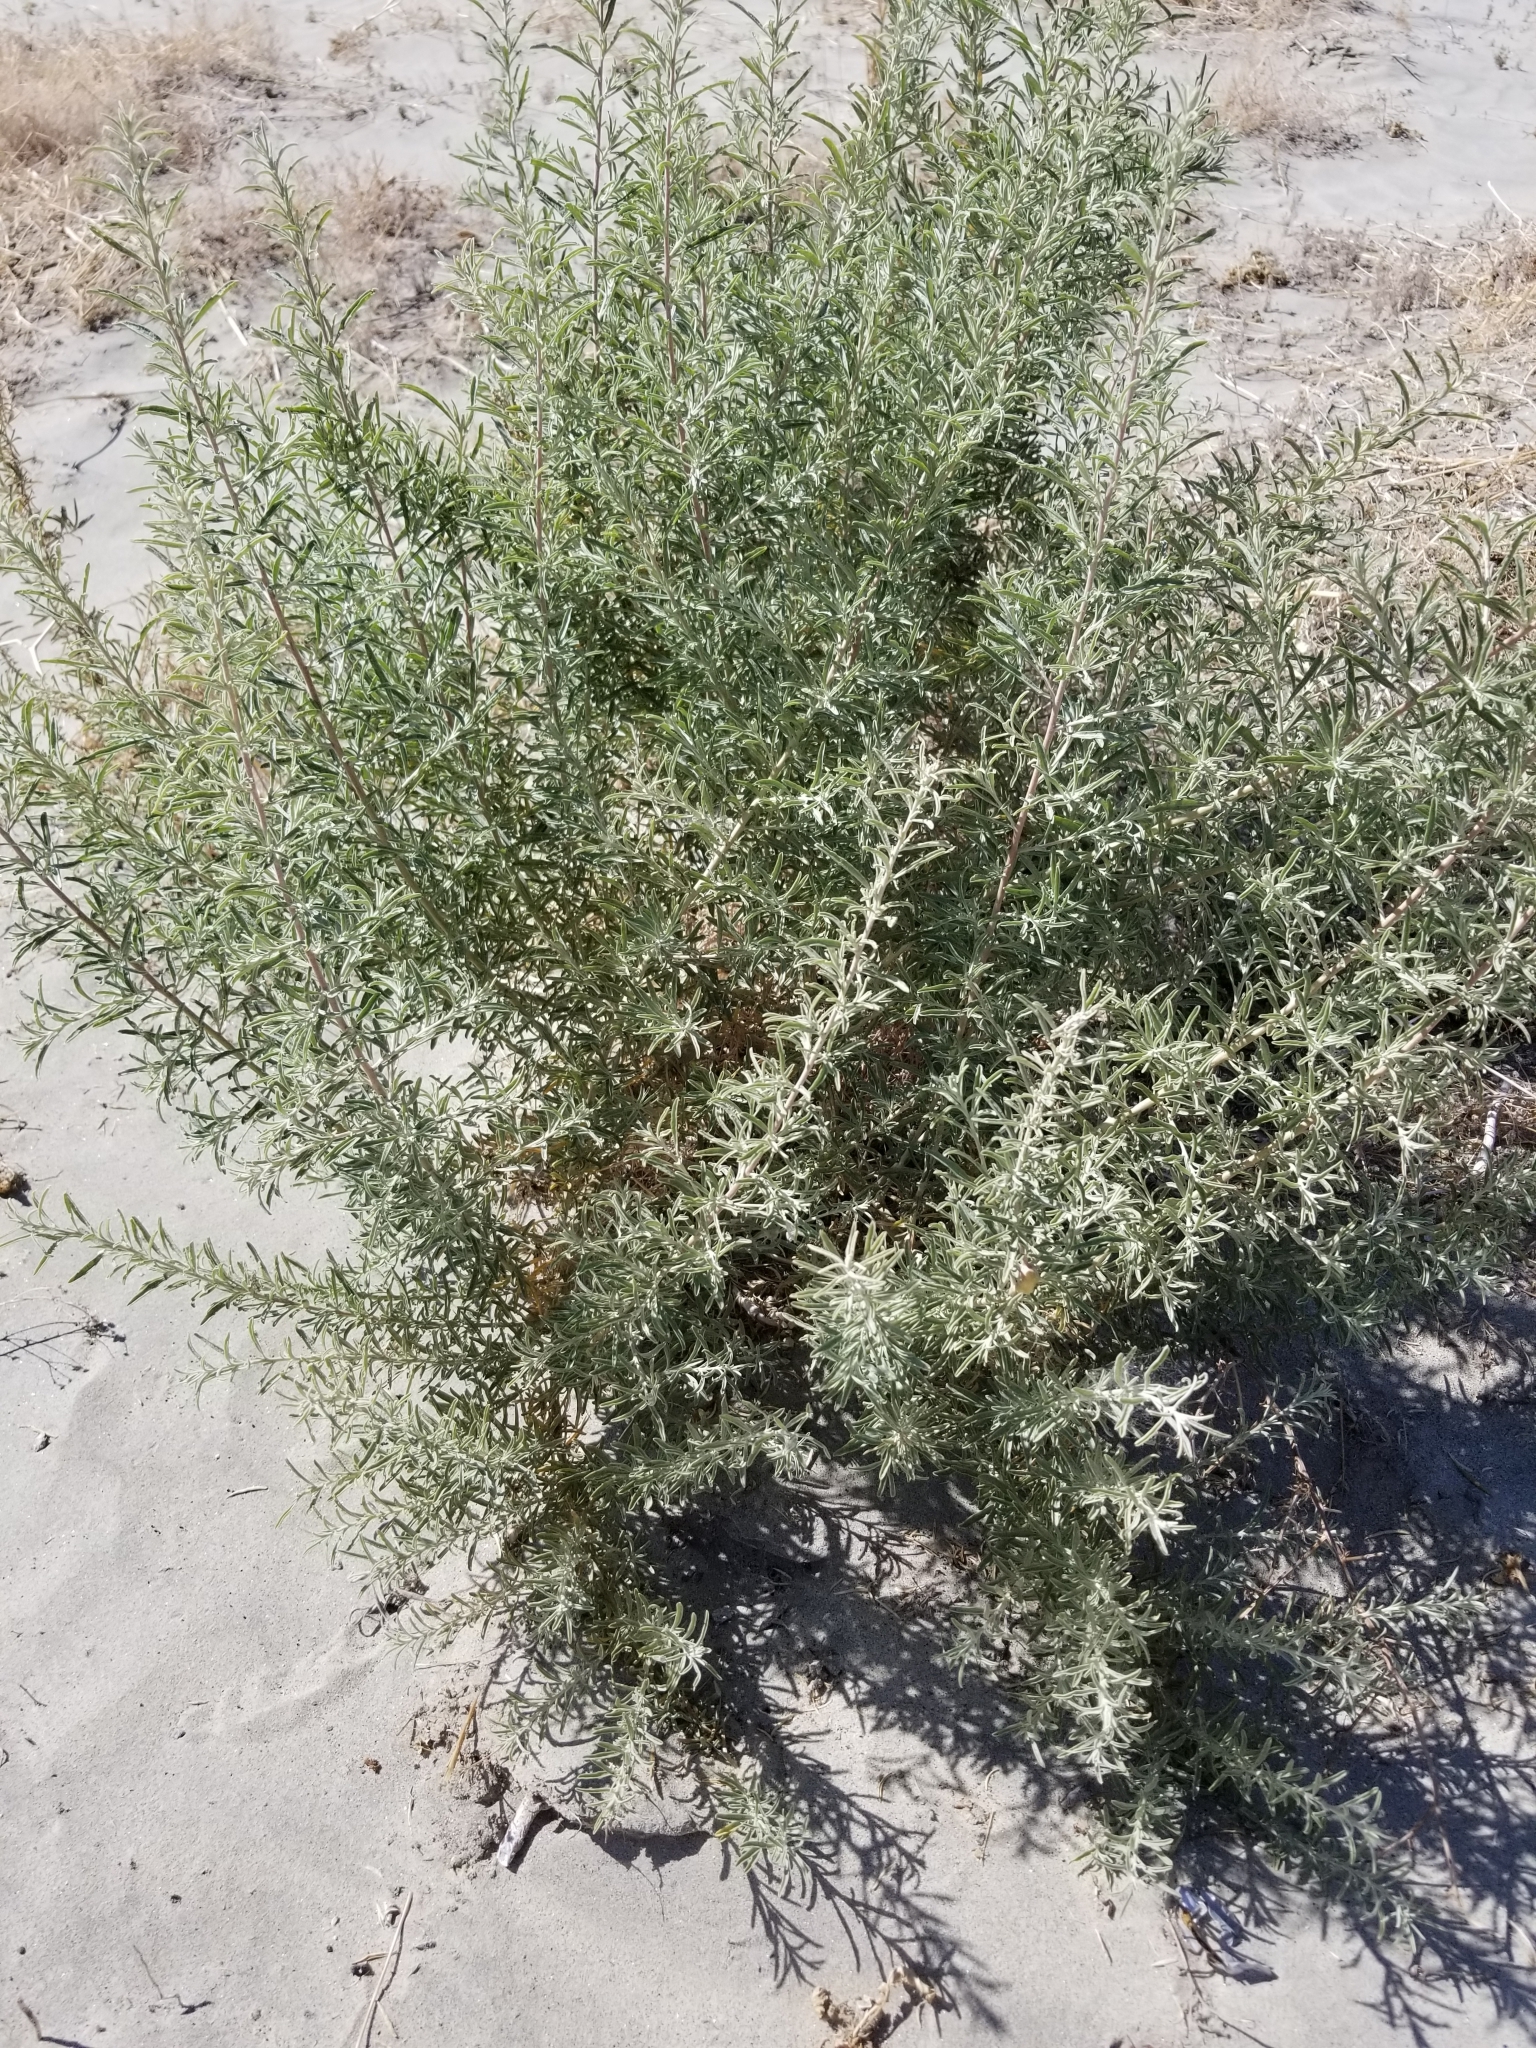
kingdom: Plantae
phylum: Tracheophyta
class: Magnoliopsida
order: Caryophyllales
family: Amaranthaceae
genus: Atriplex
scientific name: Atriplex canescens
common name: Four-wing saltbush
